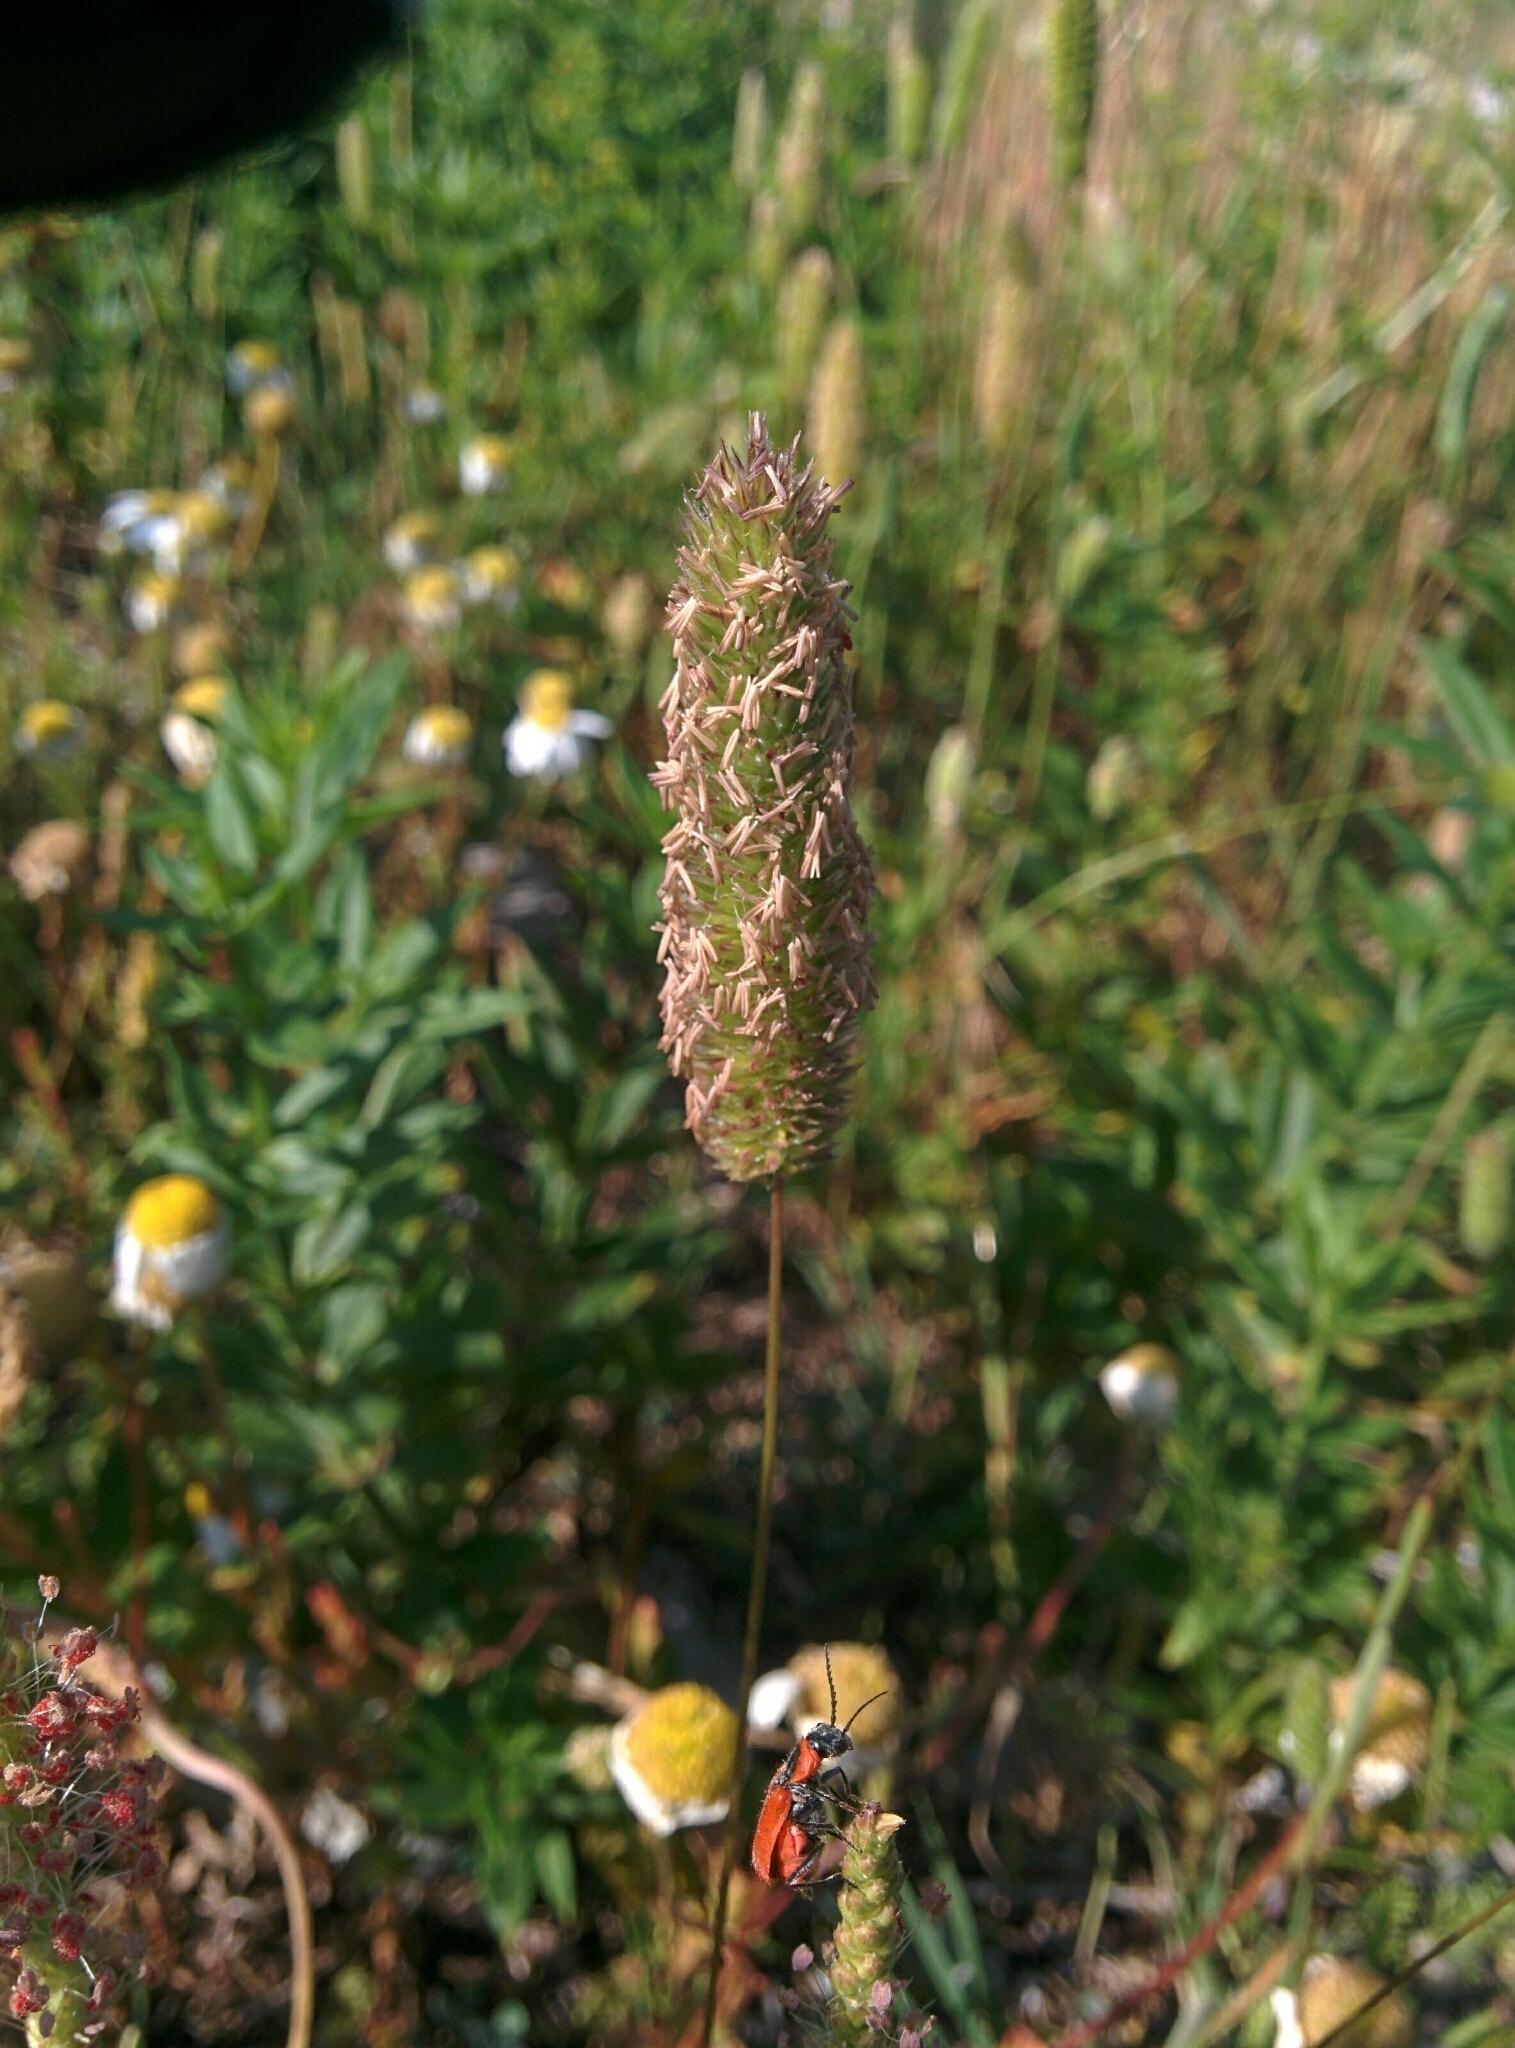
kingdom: Plantae
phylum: Tracheophyta
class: Liliopsida
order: Poales
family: Poaceae
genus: Phleum
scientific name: Phleum arenarium
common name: Sand cat's-tail
